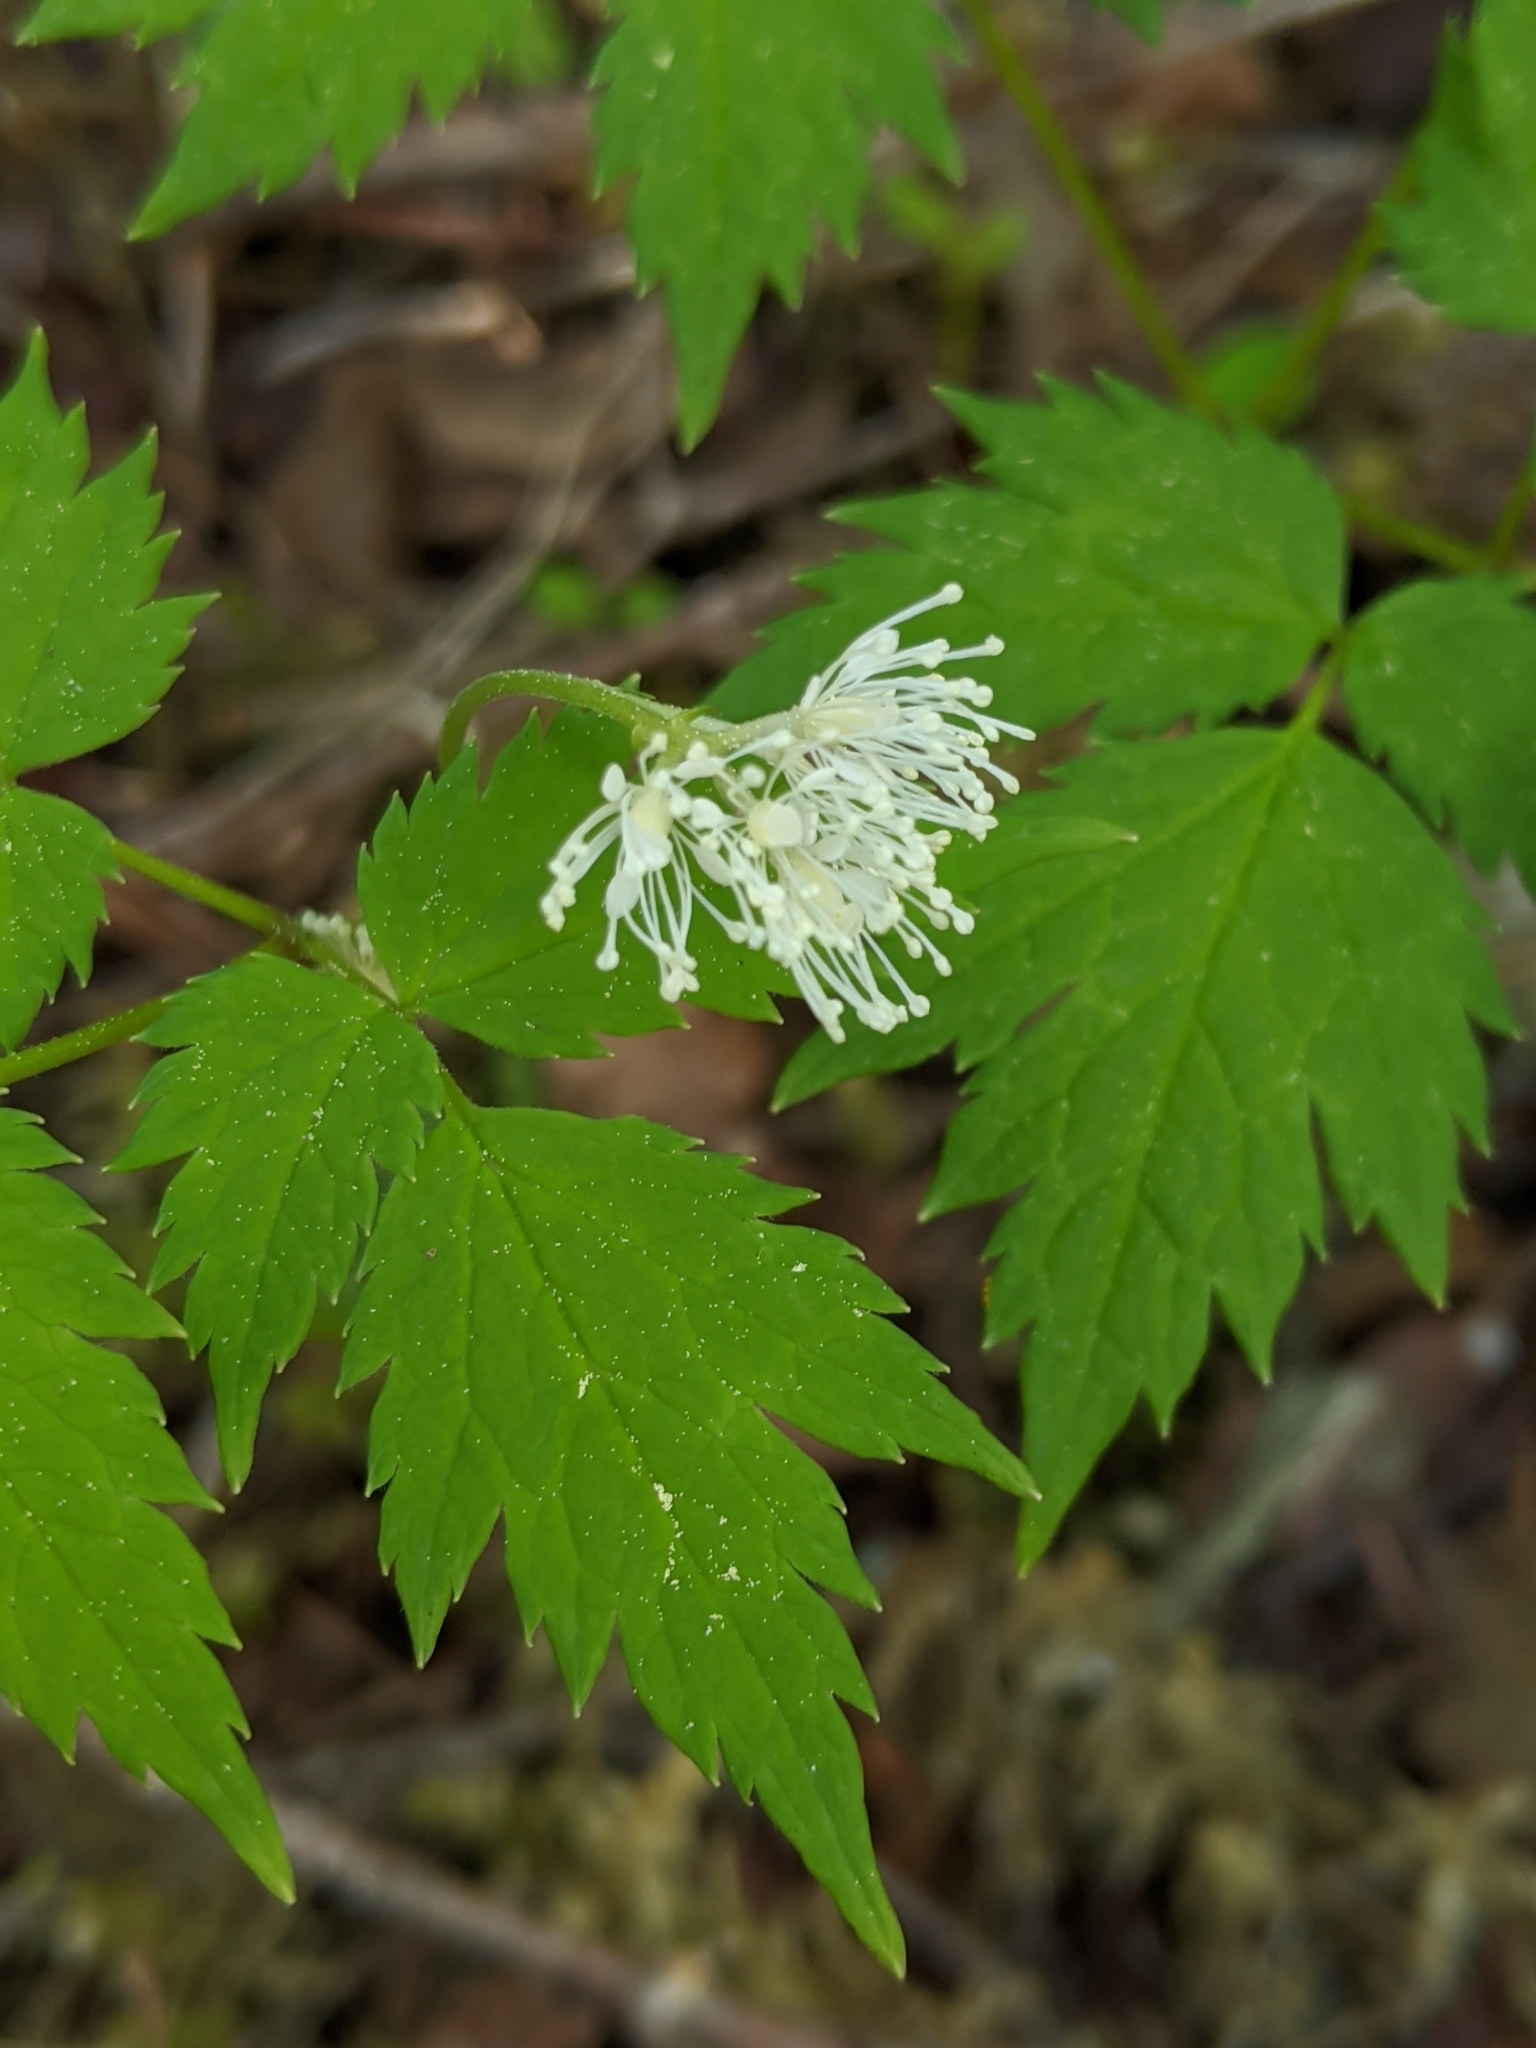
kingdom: Plantae
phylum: Tracheophyta
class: Magnoliopsida
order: Ranunculales
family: Ranunculaceae
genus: Actaea
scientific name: Actaea rubra
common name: Red baneberry
